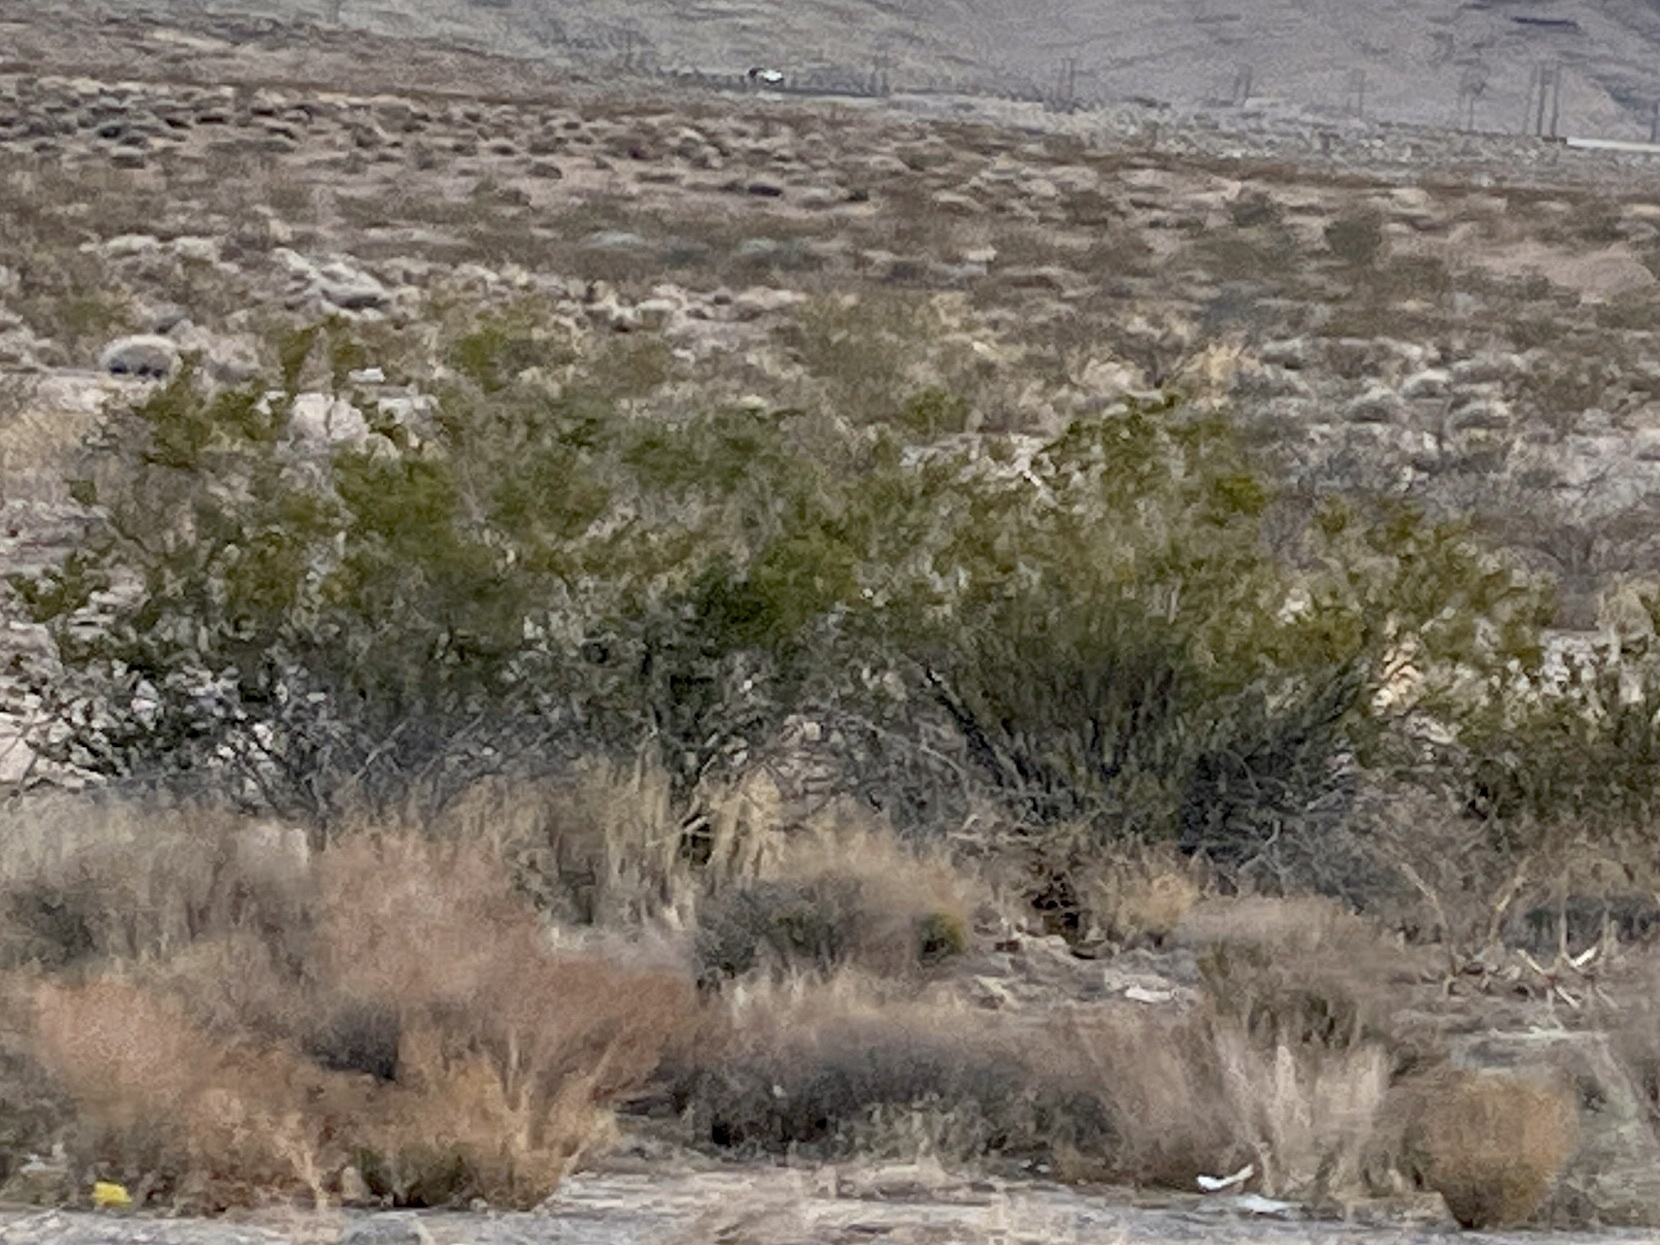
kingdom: Plantae
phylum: Tracheophyta
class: Magnoliopsida
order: Zygophyllales
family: Zygophyllaceae
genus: Larrea
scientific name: Larrea tridentata
